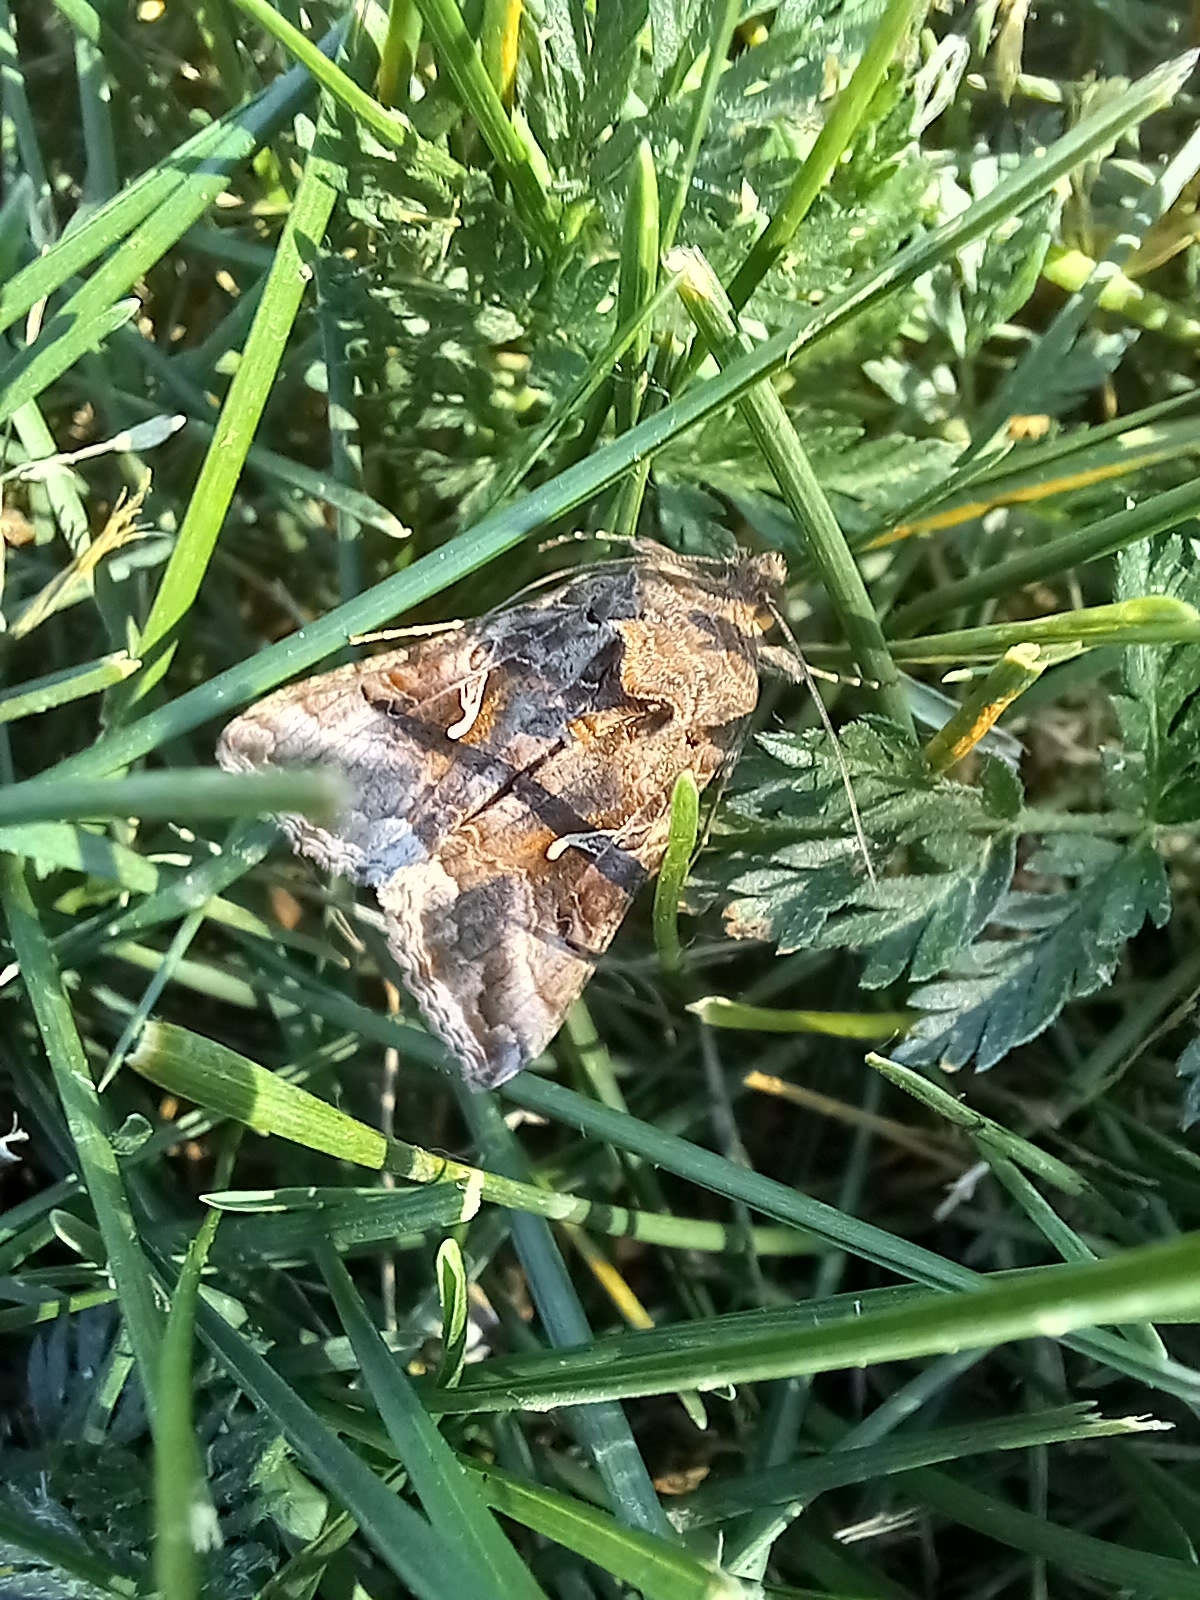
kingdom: Animalia
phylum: Arthropoda
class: Insecta
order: Lepidoptera
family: Noctuidae
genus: Autographa
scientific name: Autographa gamma
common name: Silver y
